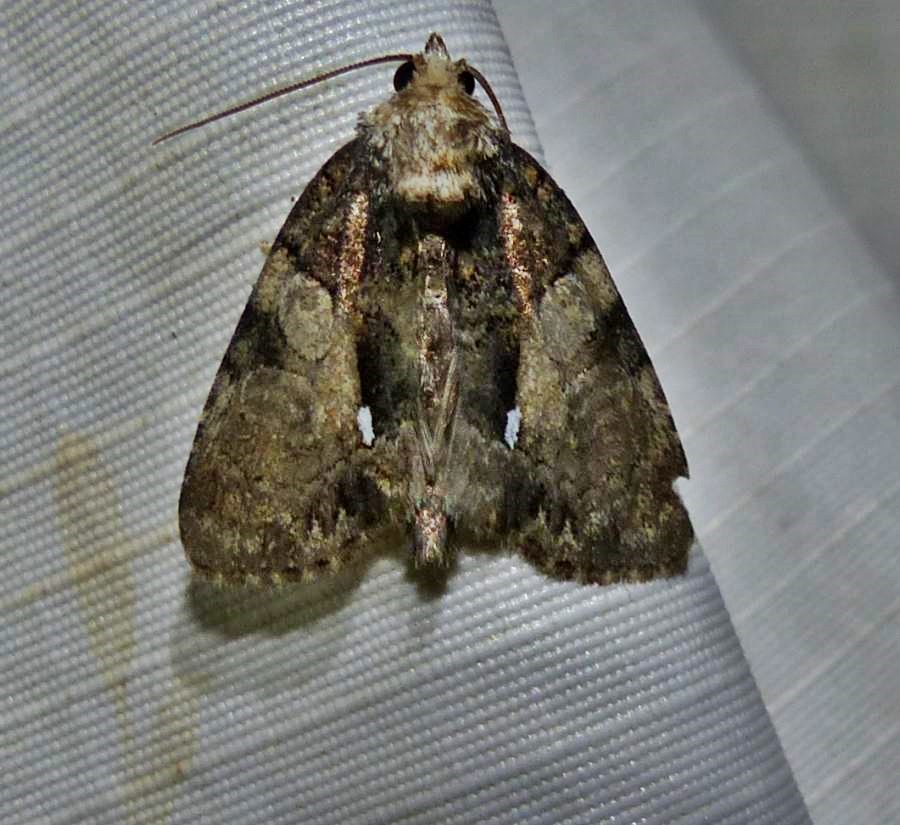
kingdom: Animalia
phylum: Arthropoda
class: Insecta
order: Lepidoptera
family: Noctuidae
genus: Chytonix
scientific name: Chytonix palliatricula
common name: Cloaked marvel
